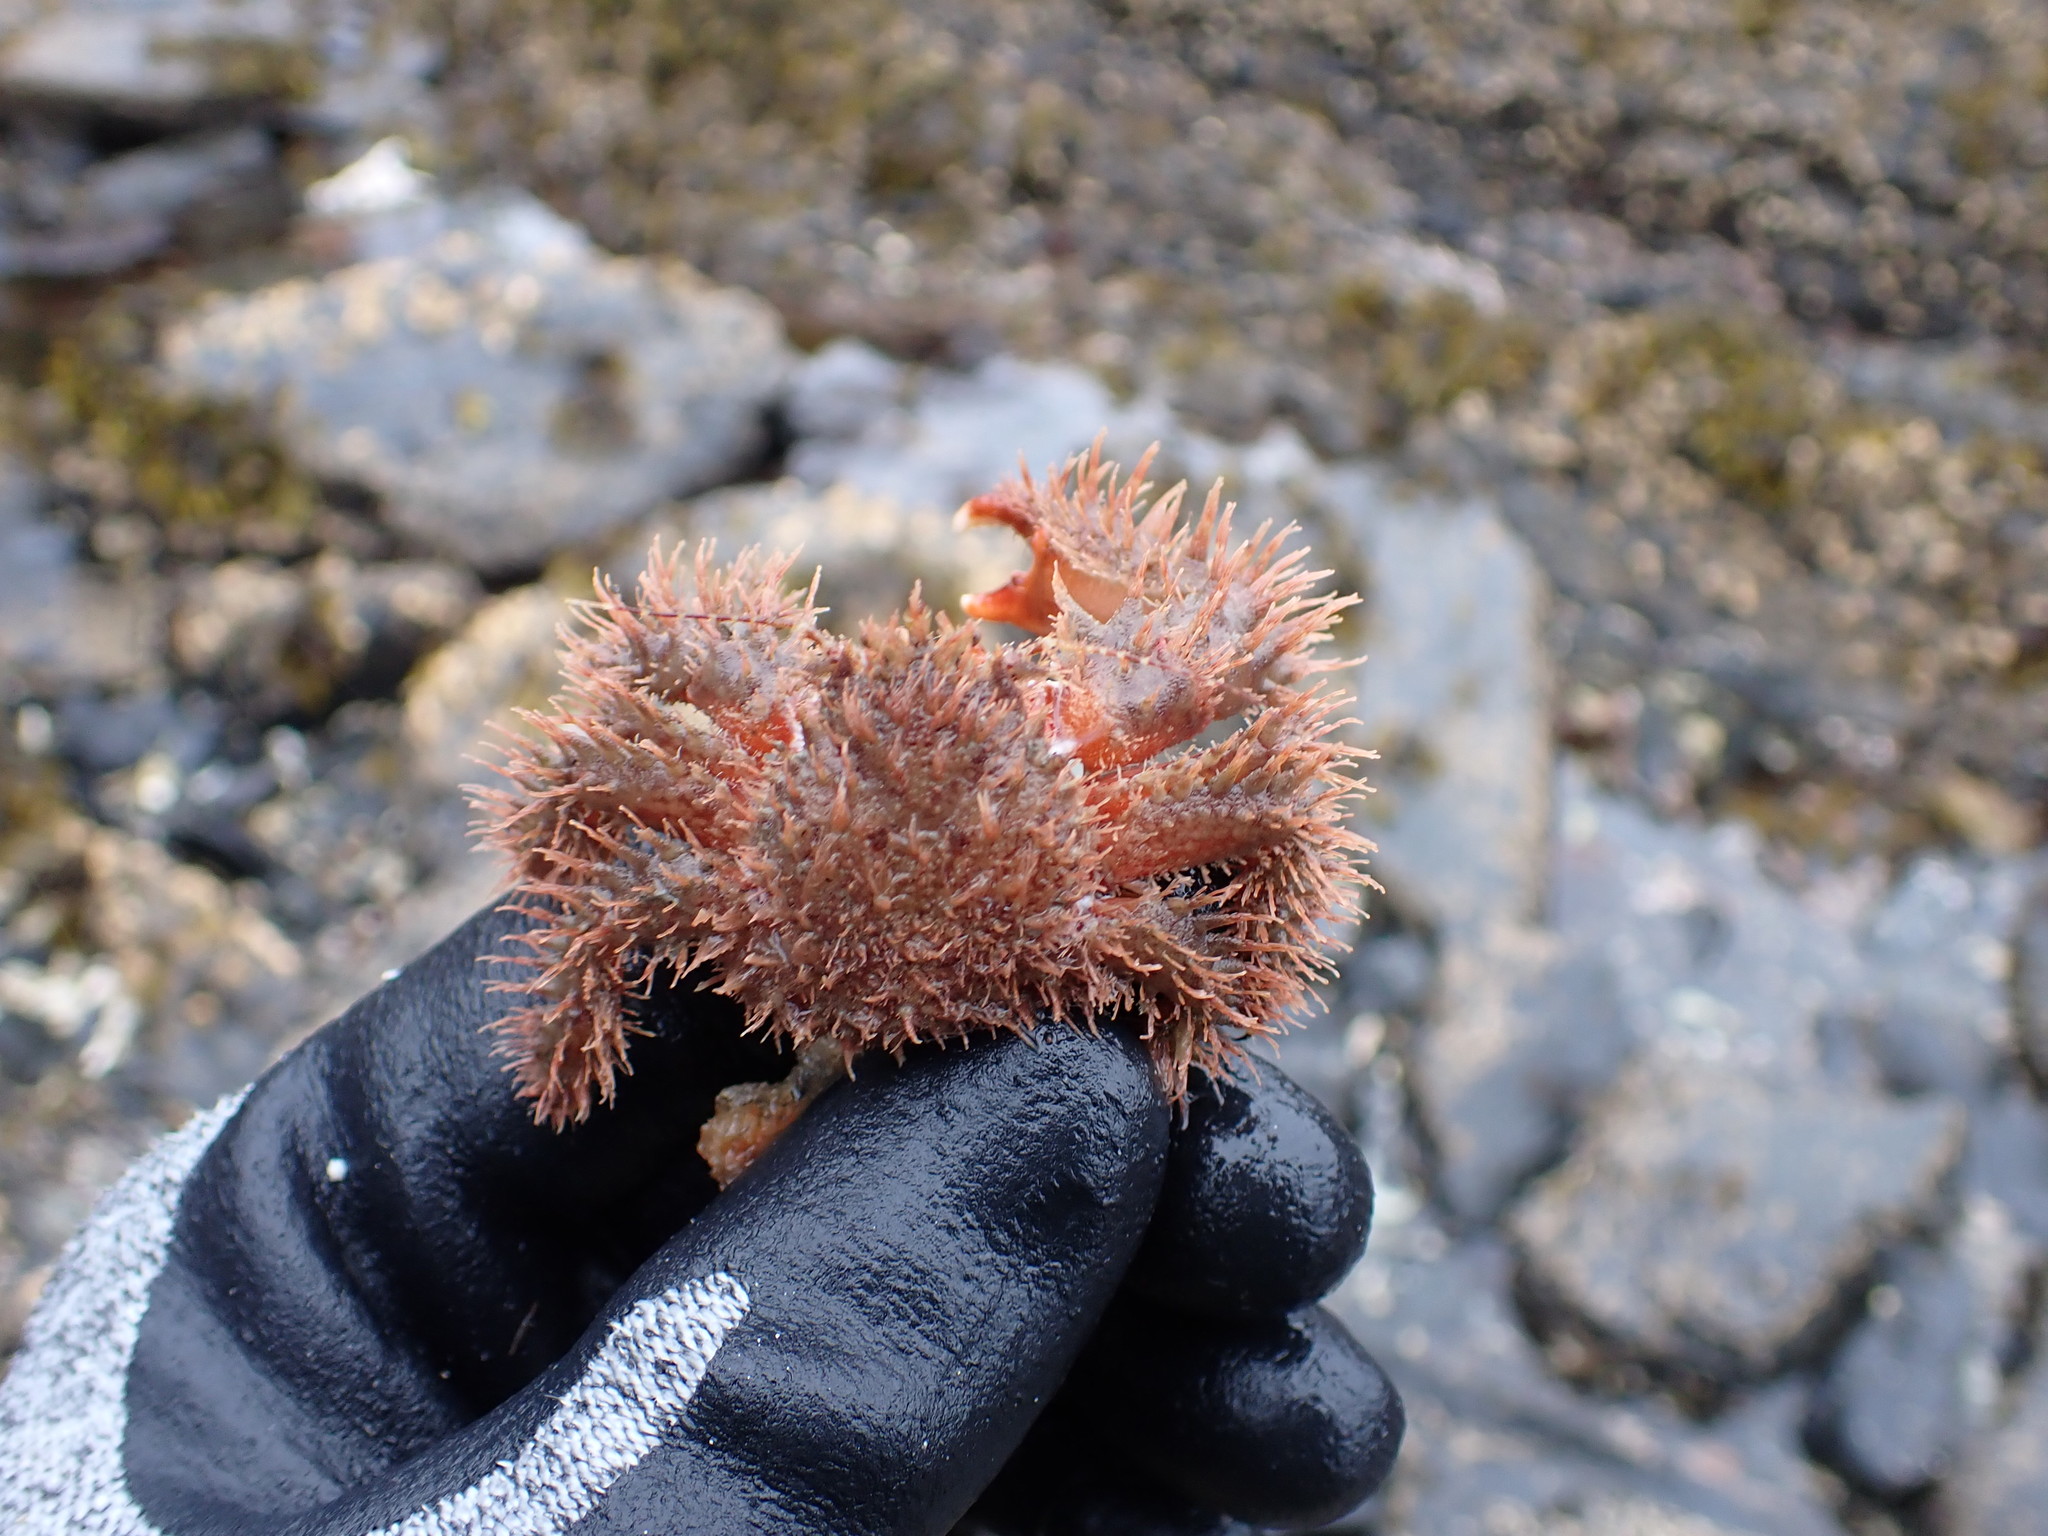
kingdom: Animalia
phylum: Arthropoda
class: Malacostraca
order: Decapoda
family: Hapalogastridae
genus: Hapalogaster
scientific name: Hapalogaster mertensii
